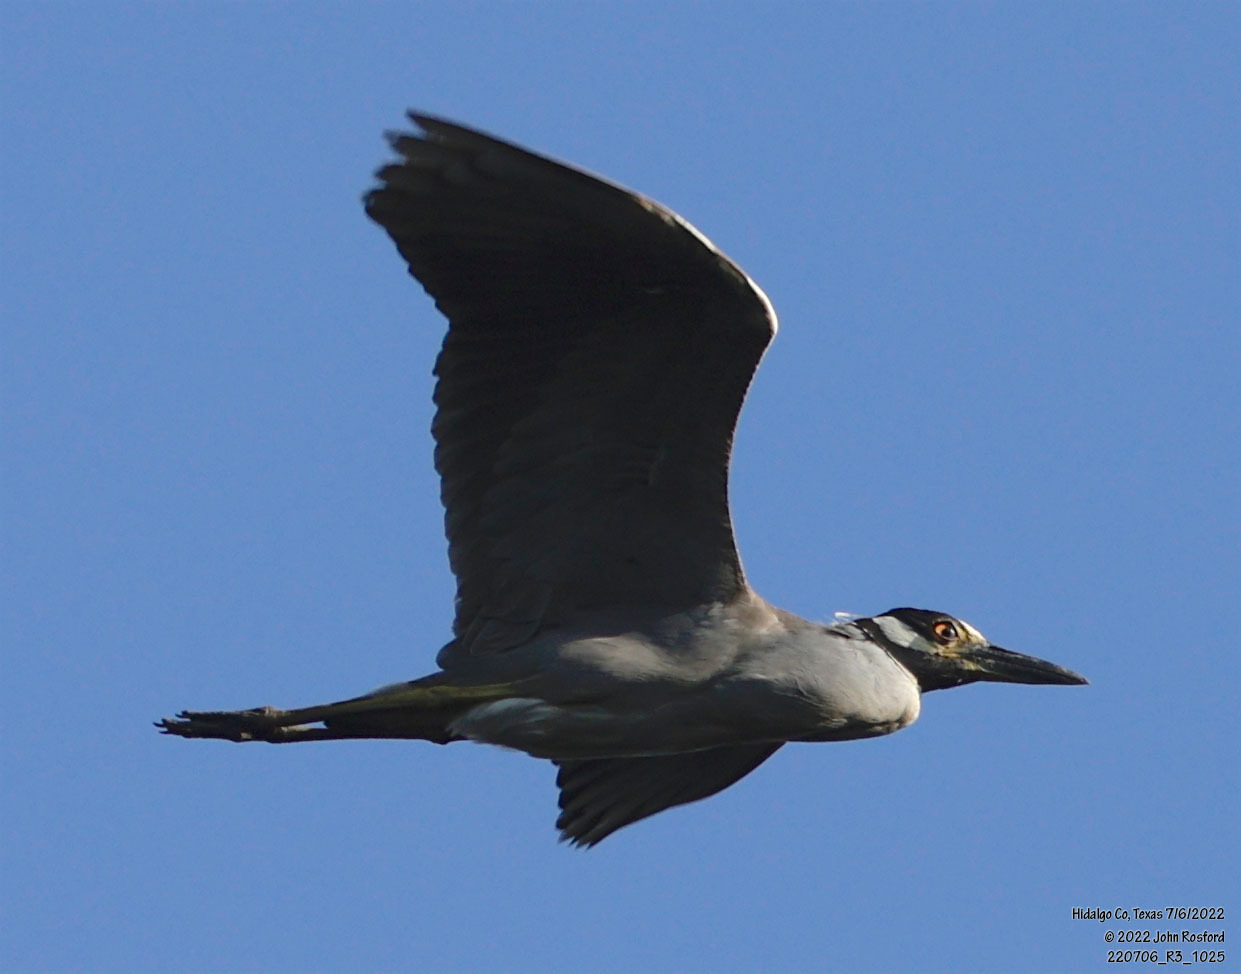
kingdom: Animalia
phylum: Chordata
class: Aves
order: Pelecaniformes
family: Ardeidae
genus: Nyctanassa
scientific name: Nyctanassa violacea
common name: Yellow-crowned night heron
